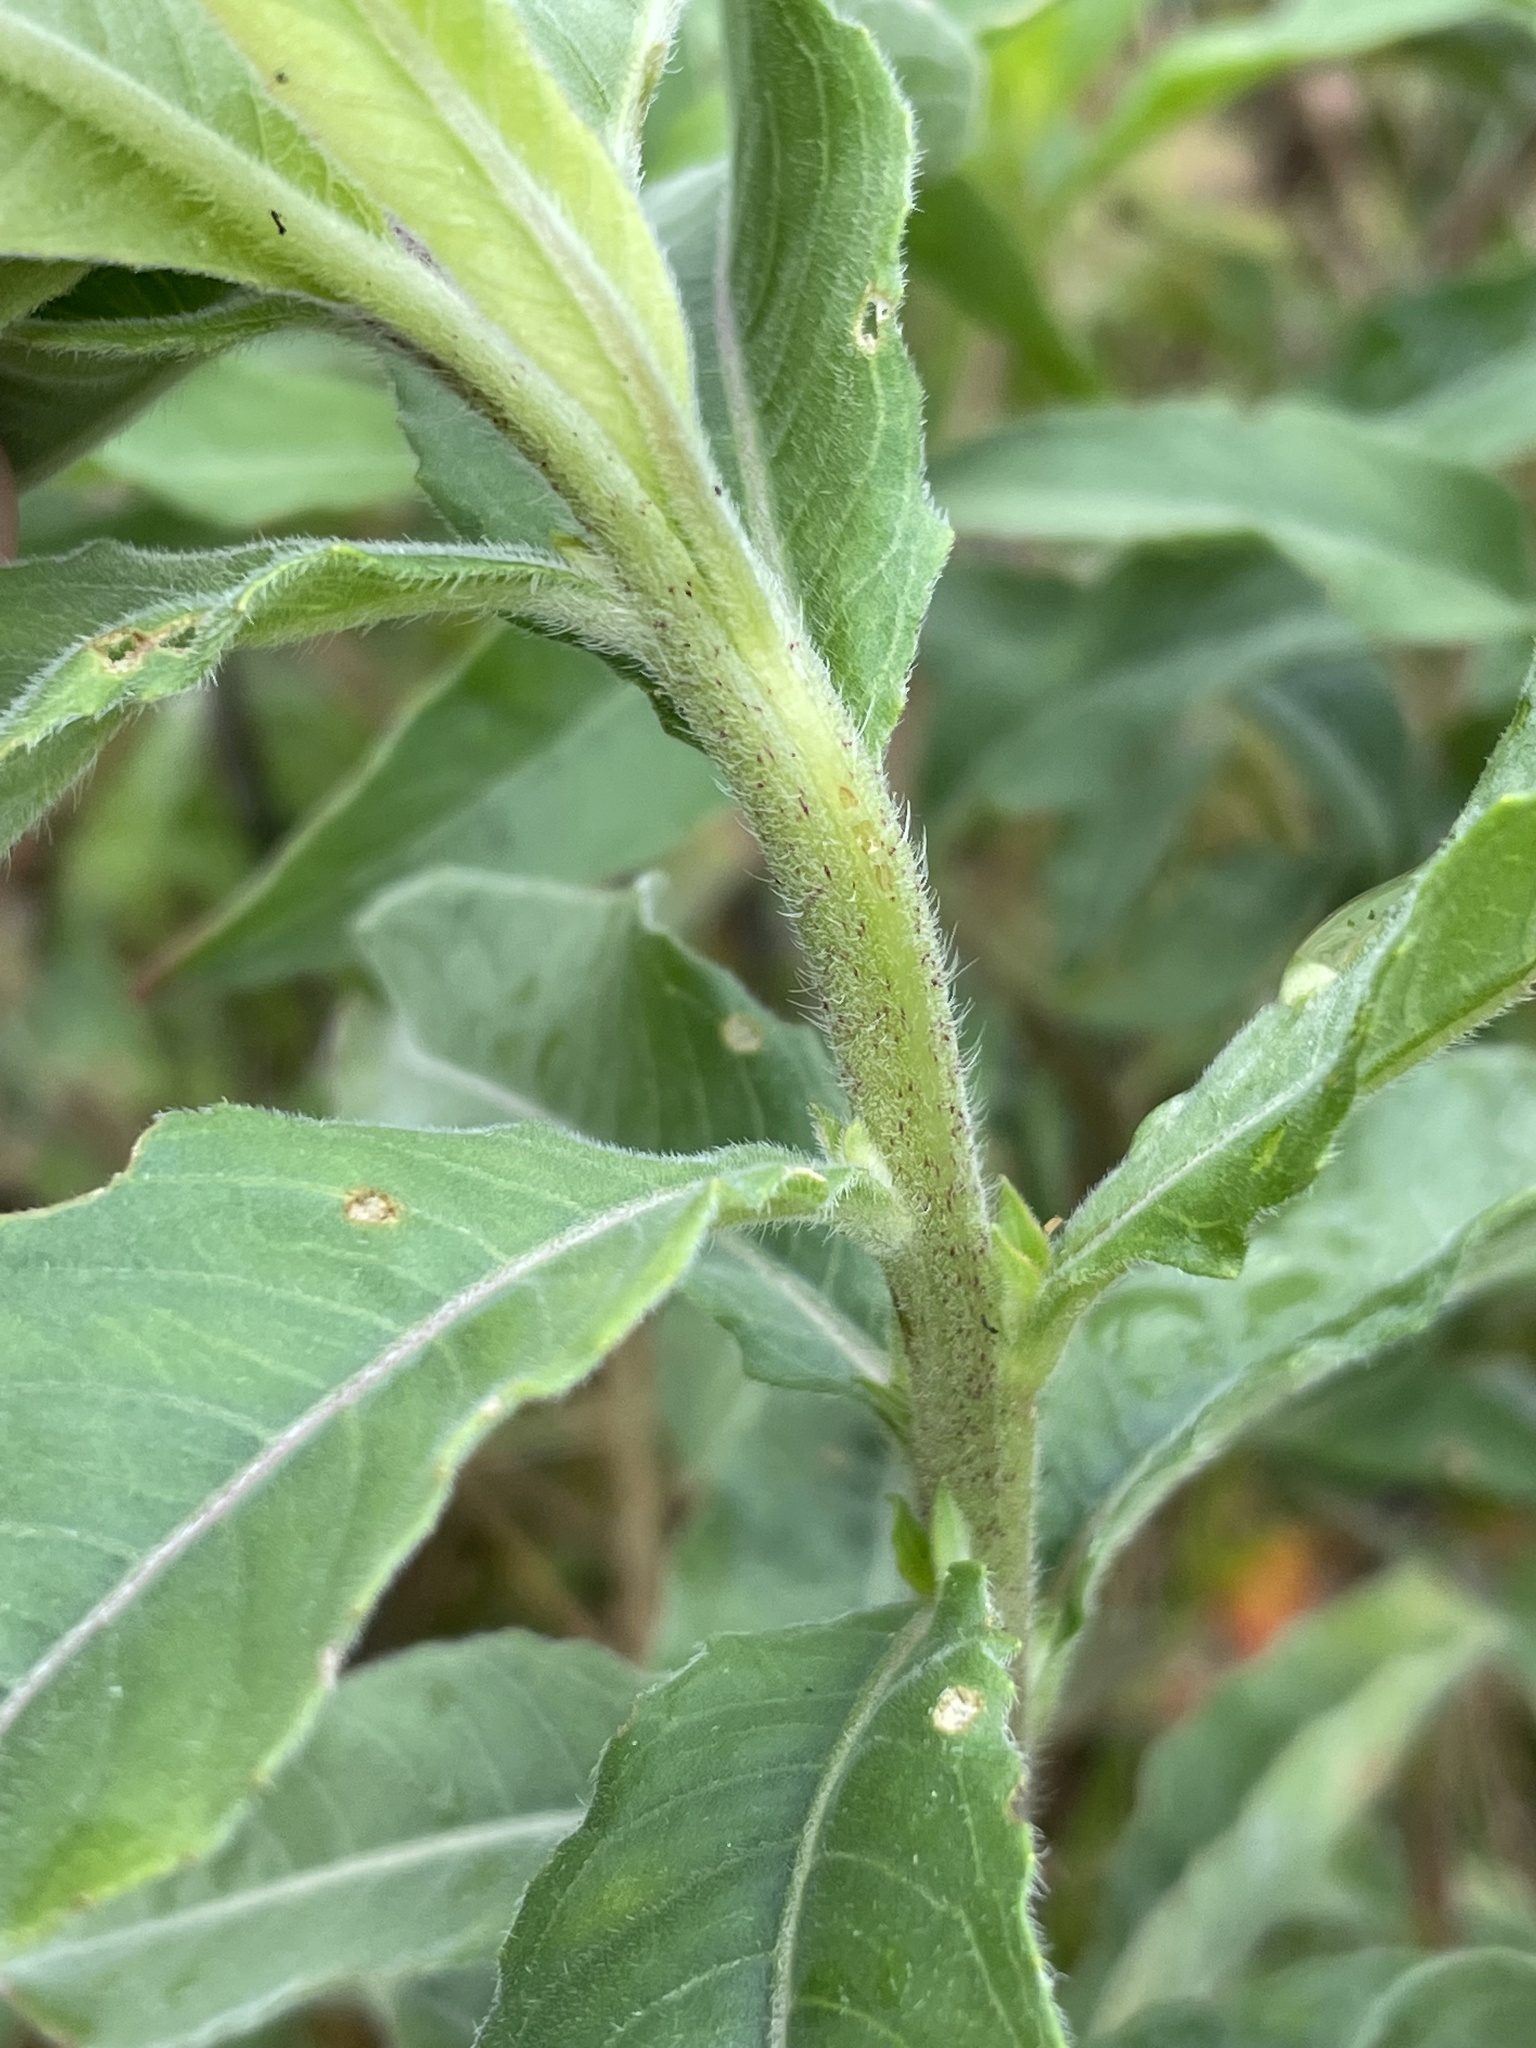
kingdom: Plantae
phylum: Tracheophyta
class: Magnoliopsida
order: Myrtales
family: Onagraceae
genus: Oenothera
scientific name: Oenothera biennis
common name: Common evening-primrose
